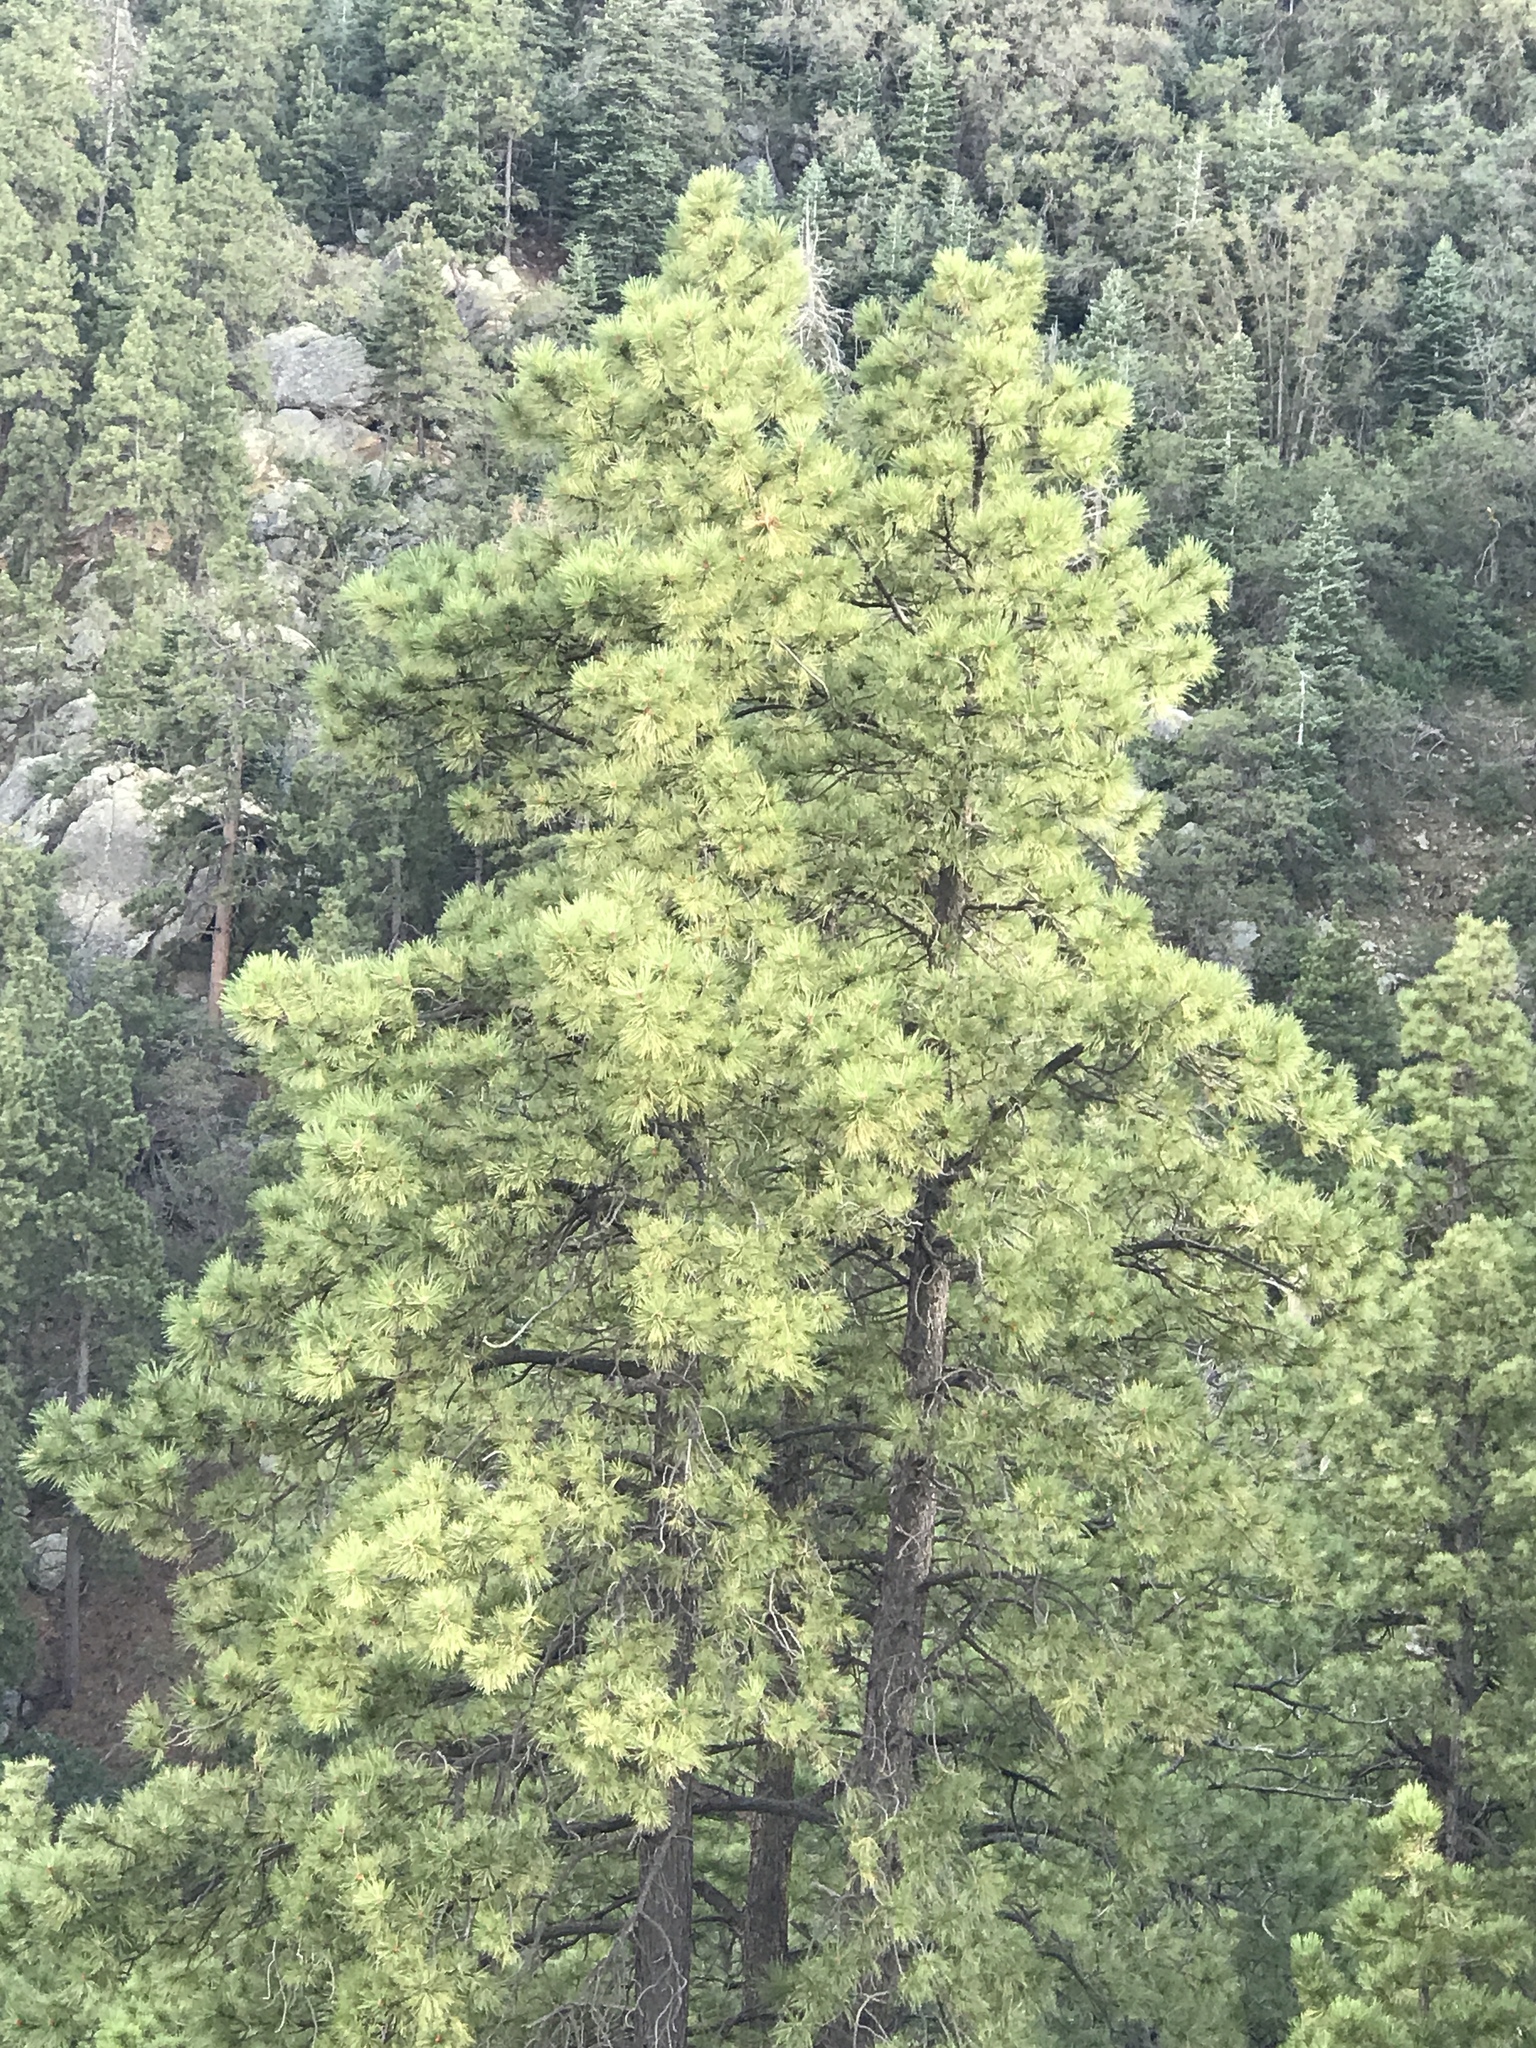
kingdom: Plantae
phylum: Tracheophyta
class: Pinopsida
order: Pinales
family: Pinaceae
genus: Pinus
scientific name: Pinus ponderosa
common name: Western yellow-pine
